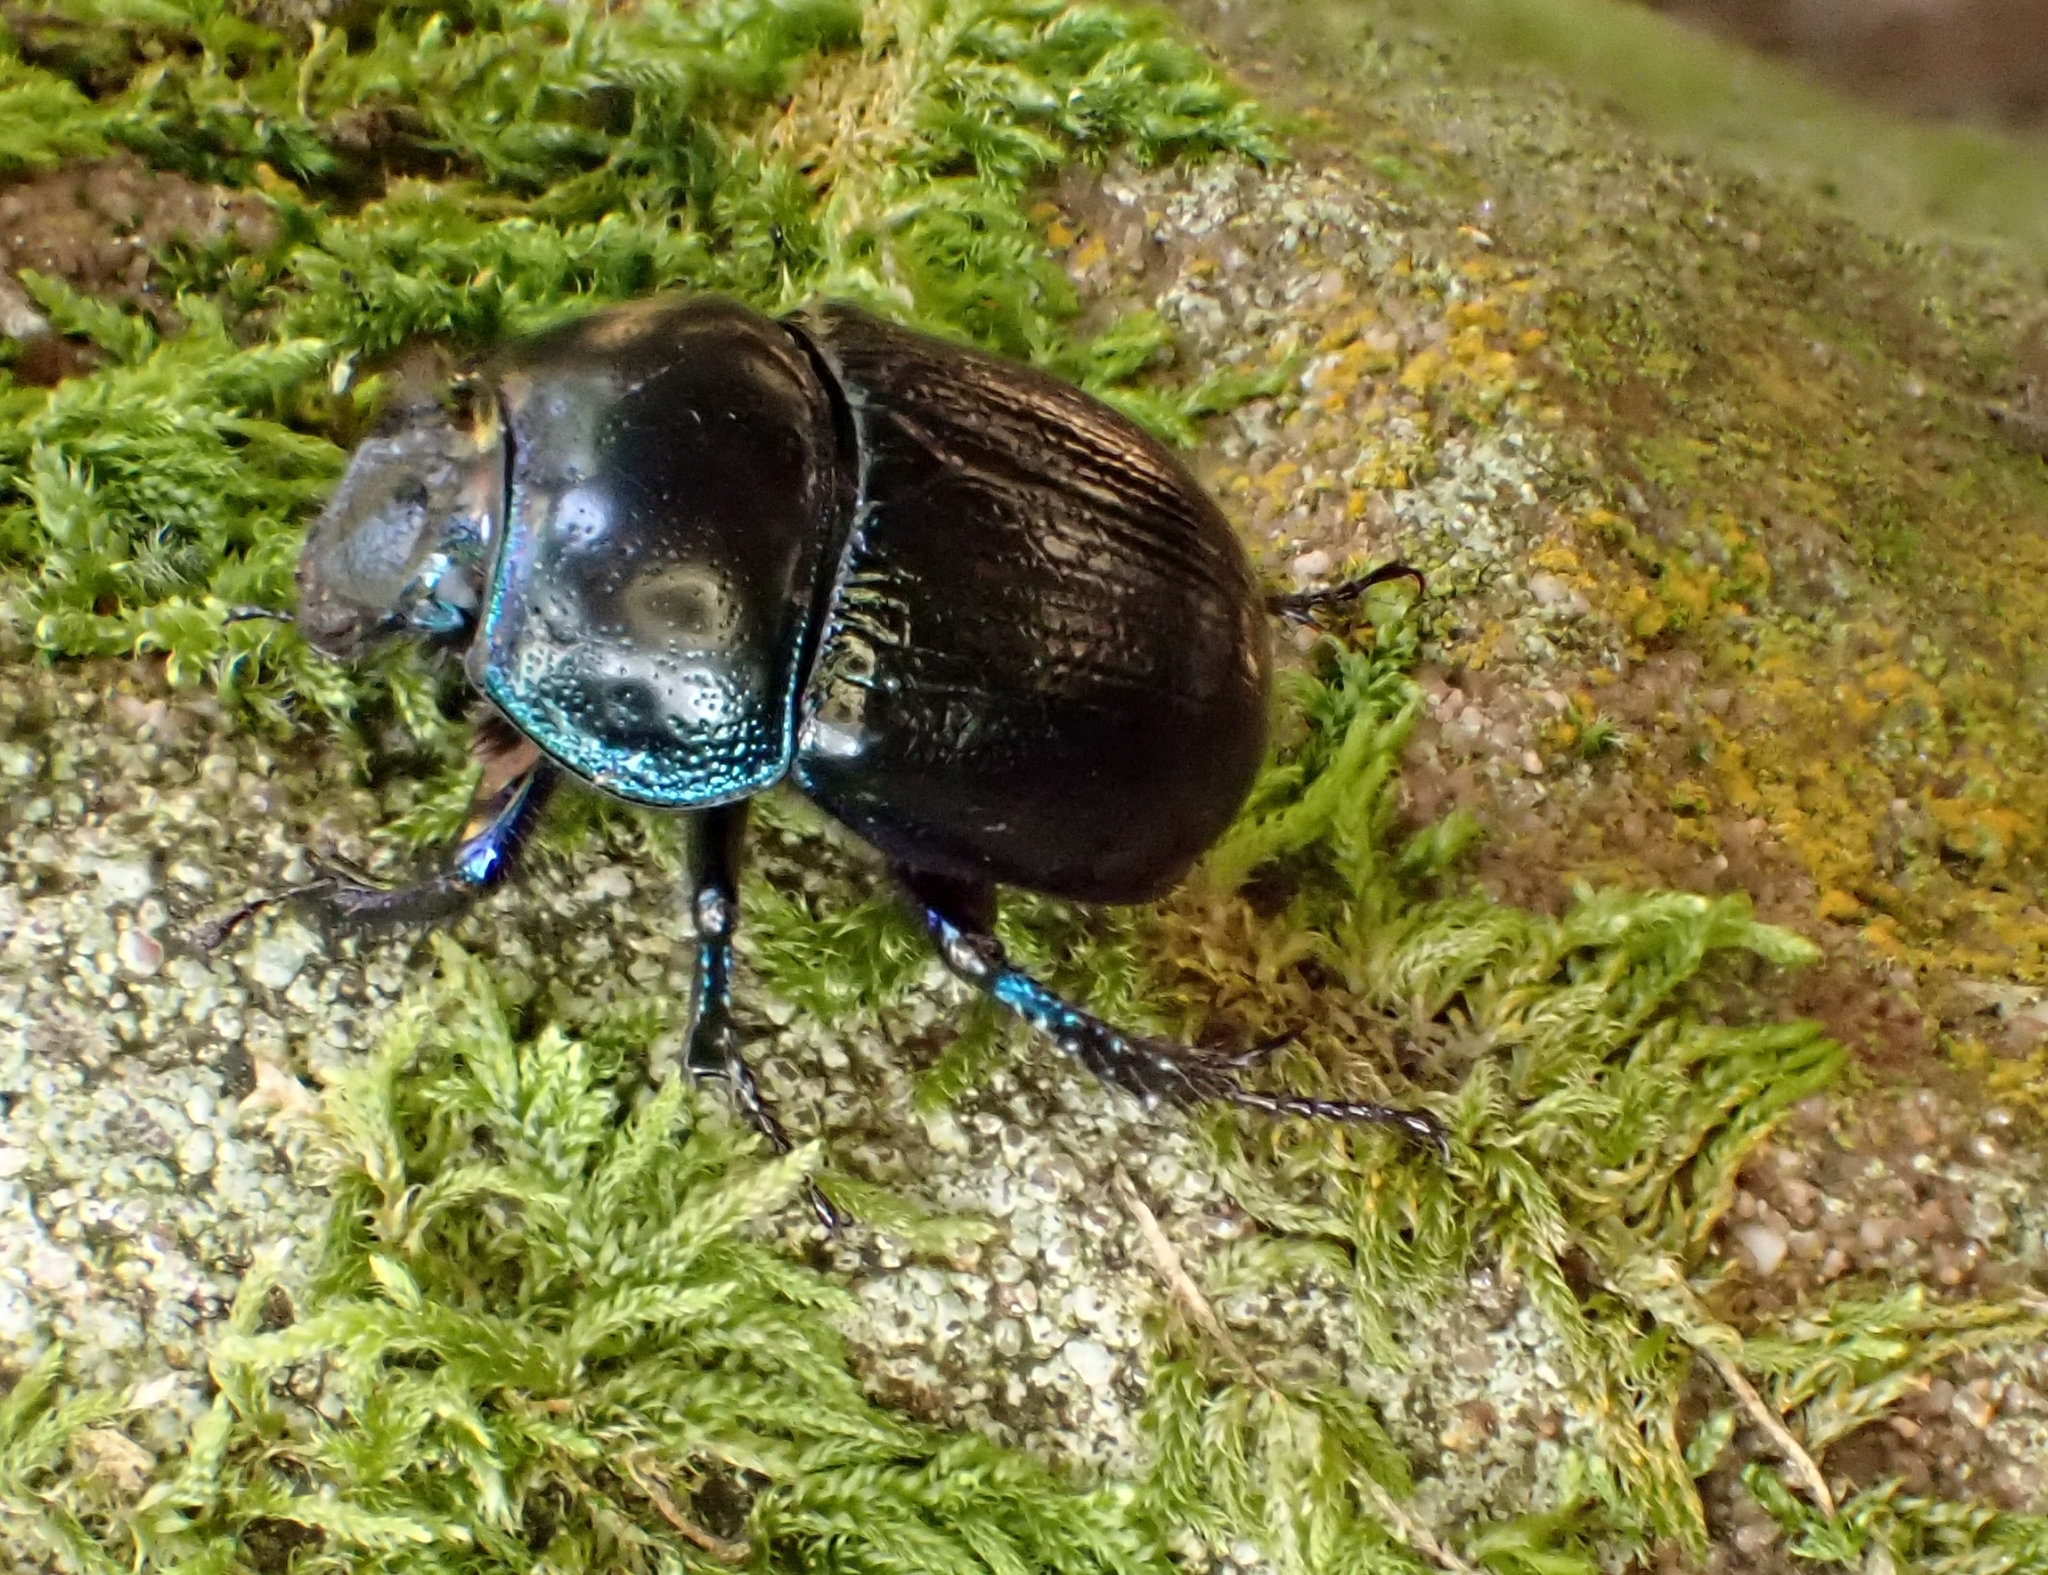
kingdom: Animalia
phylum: Arthropoda
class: Insecta
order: Coleoptera
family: Geotrupidae
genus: Anoplotrupes
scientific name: Anoplotrupes stercorosus
